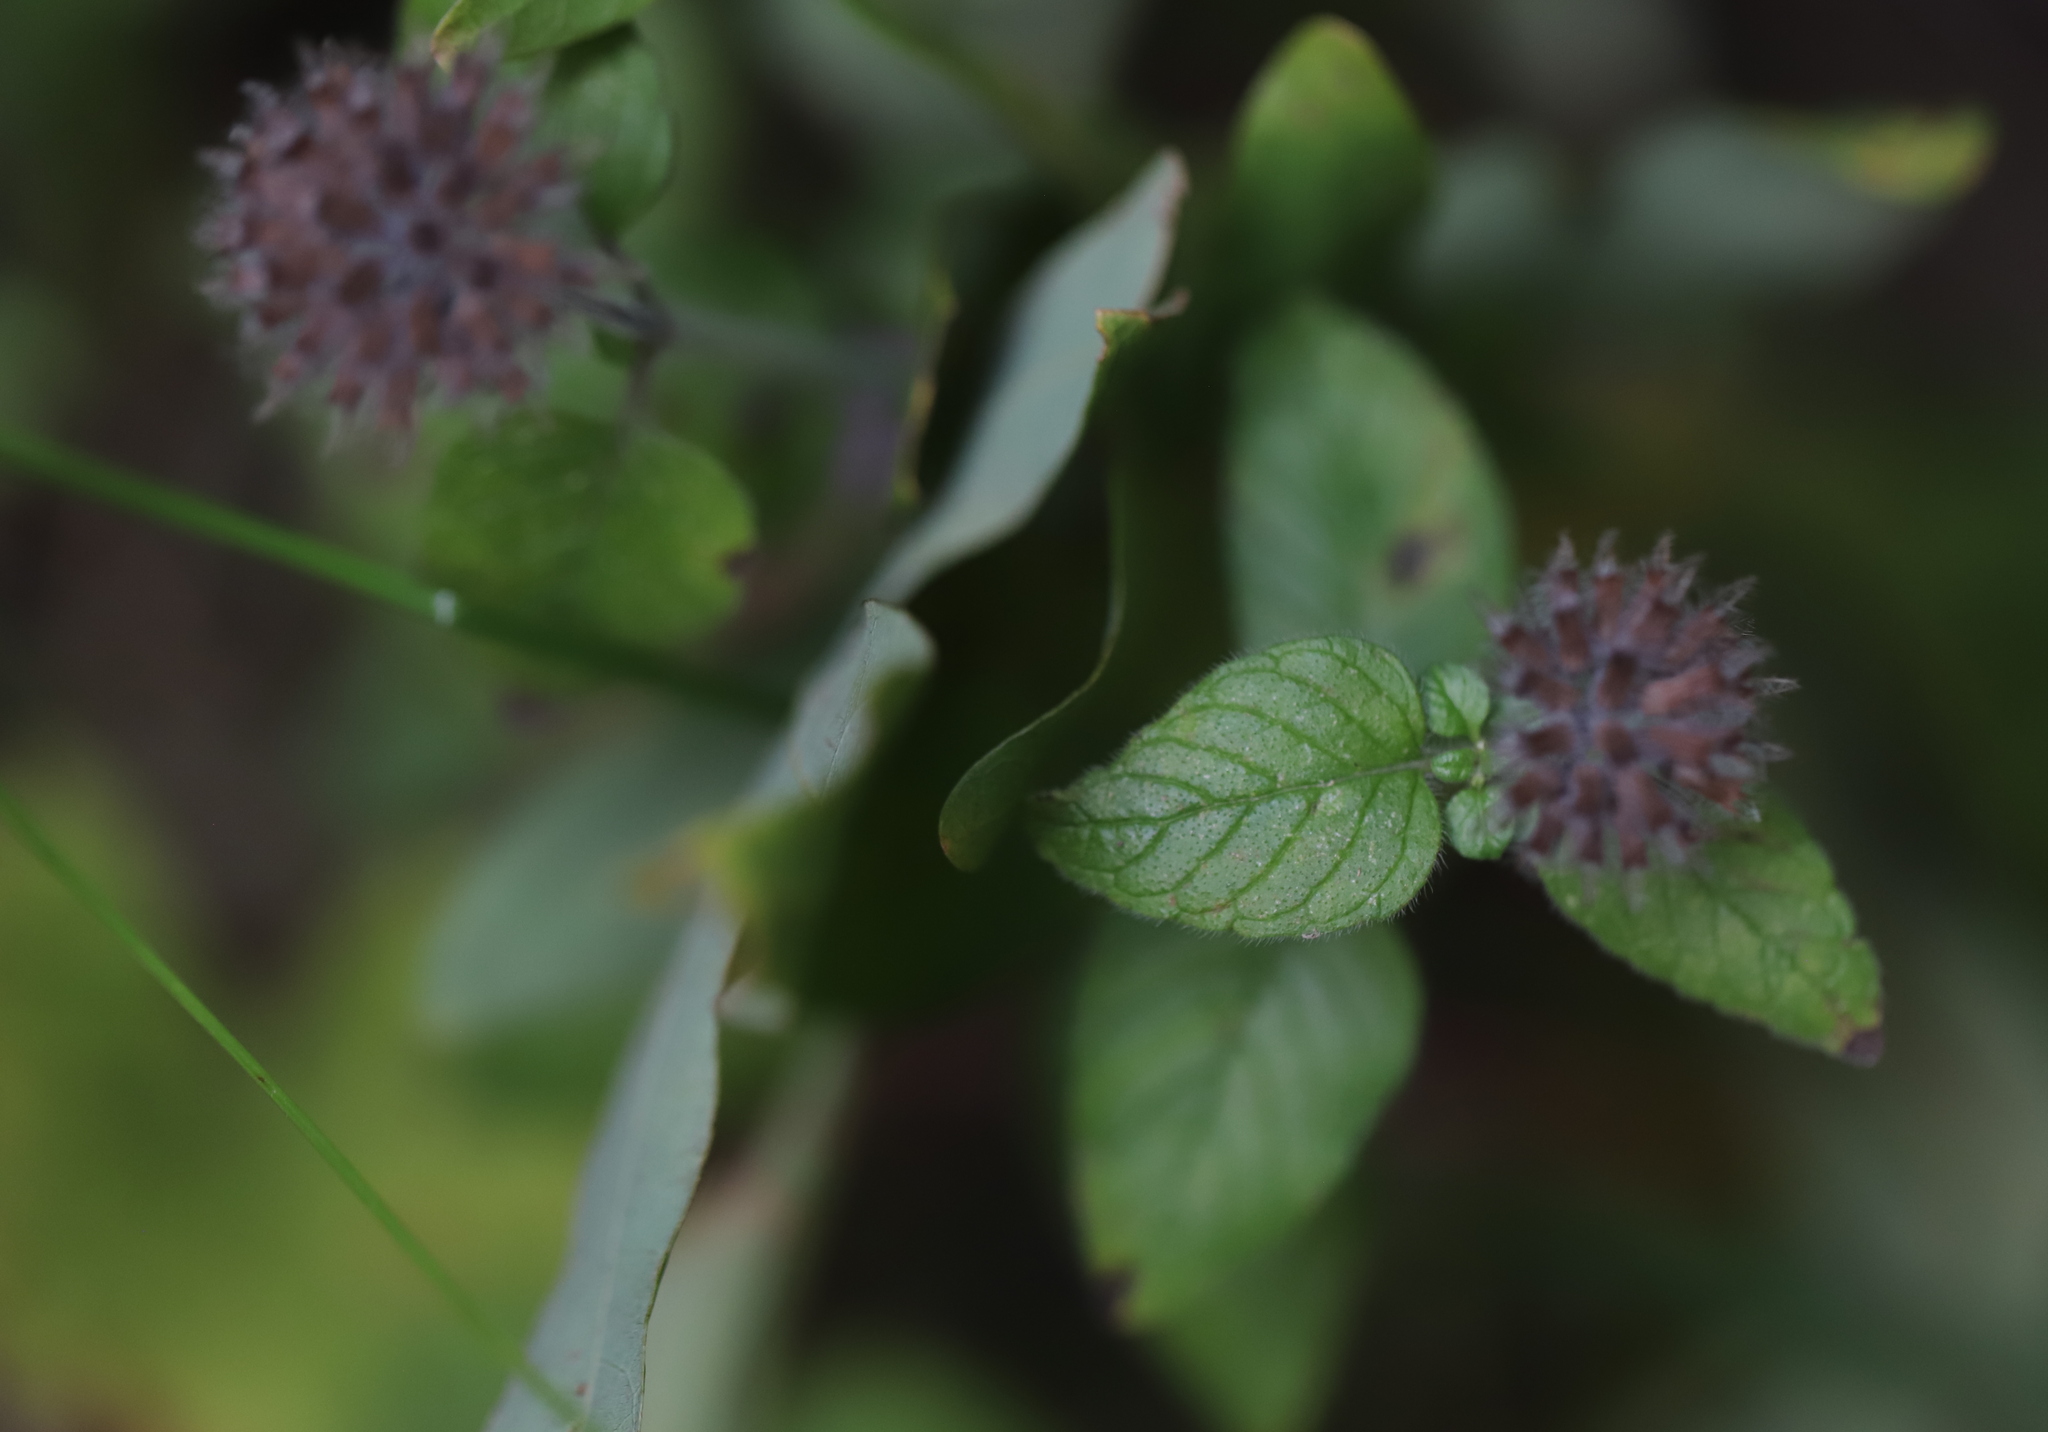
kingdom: Plantae
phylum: Tracheophyta
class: Magnoliopsida
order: Lamiales
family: Lamiaceae
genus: Clinopodium
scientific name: Clinopodium vulgare
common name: Wild basil
